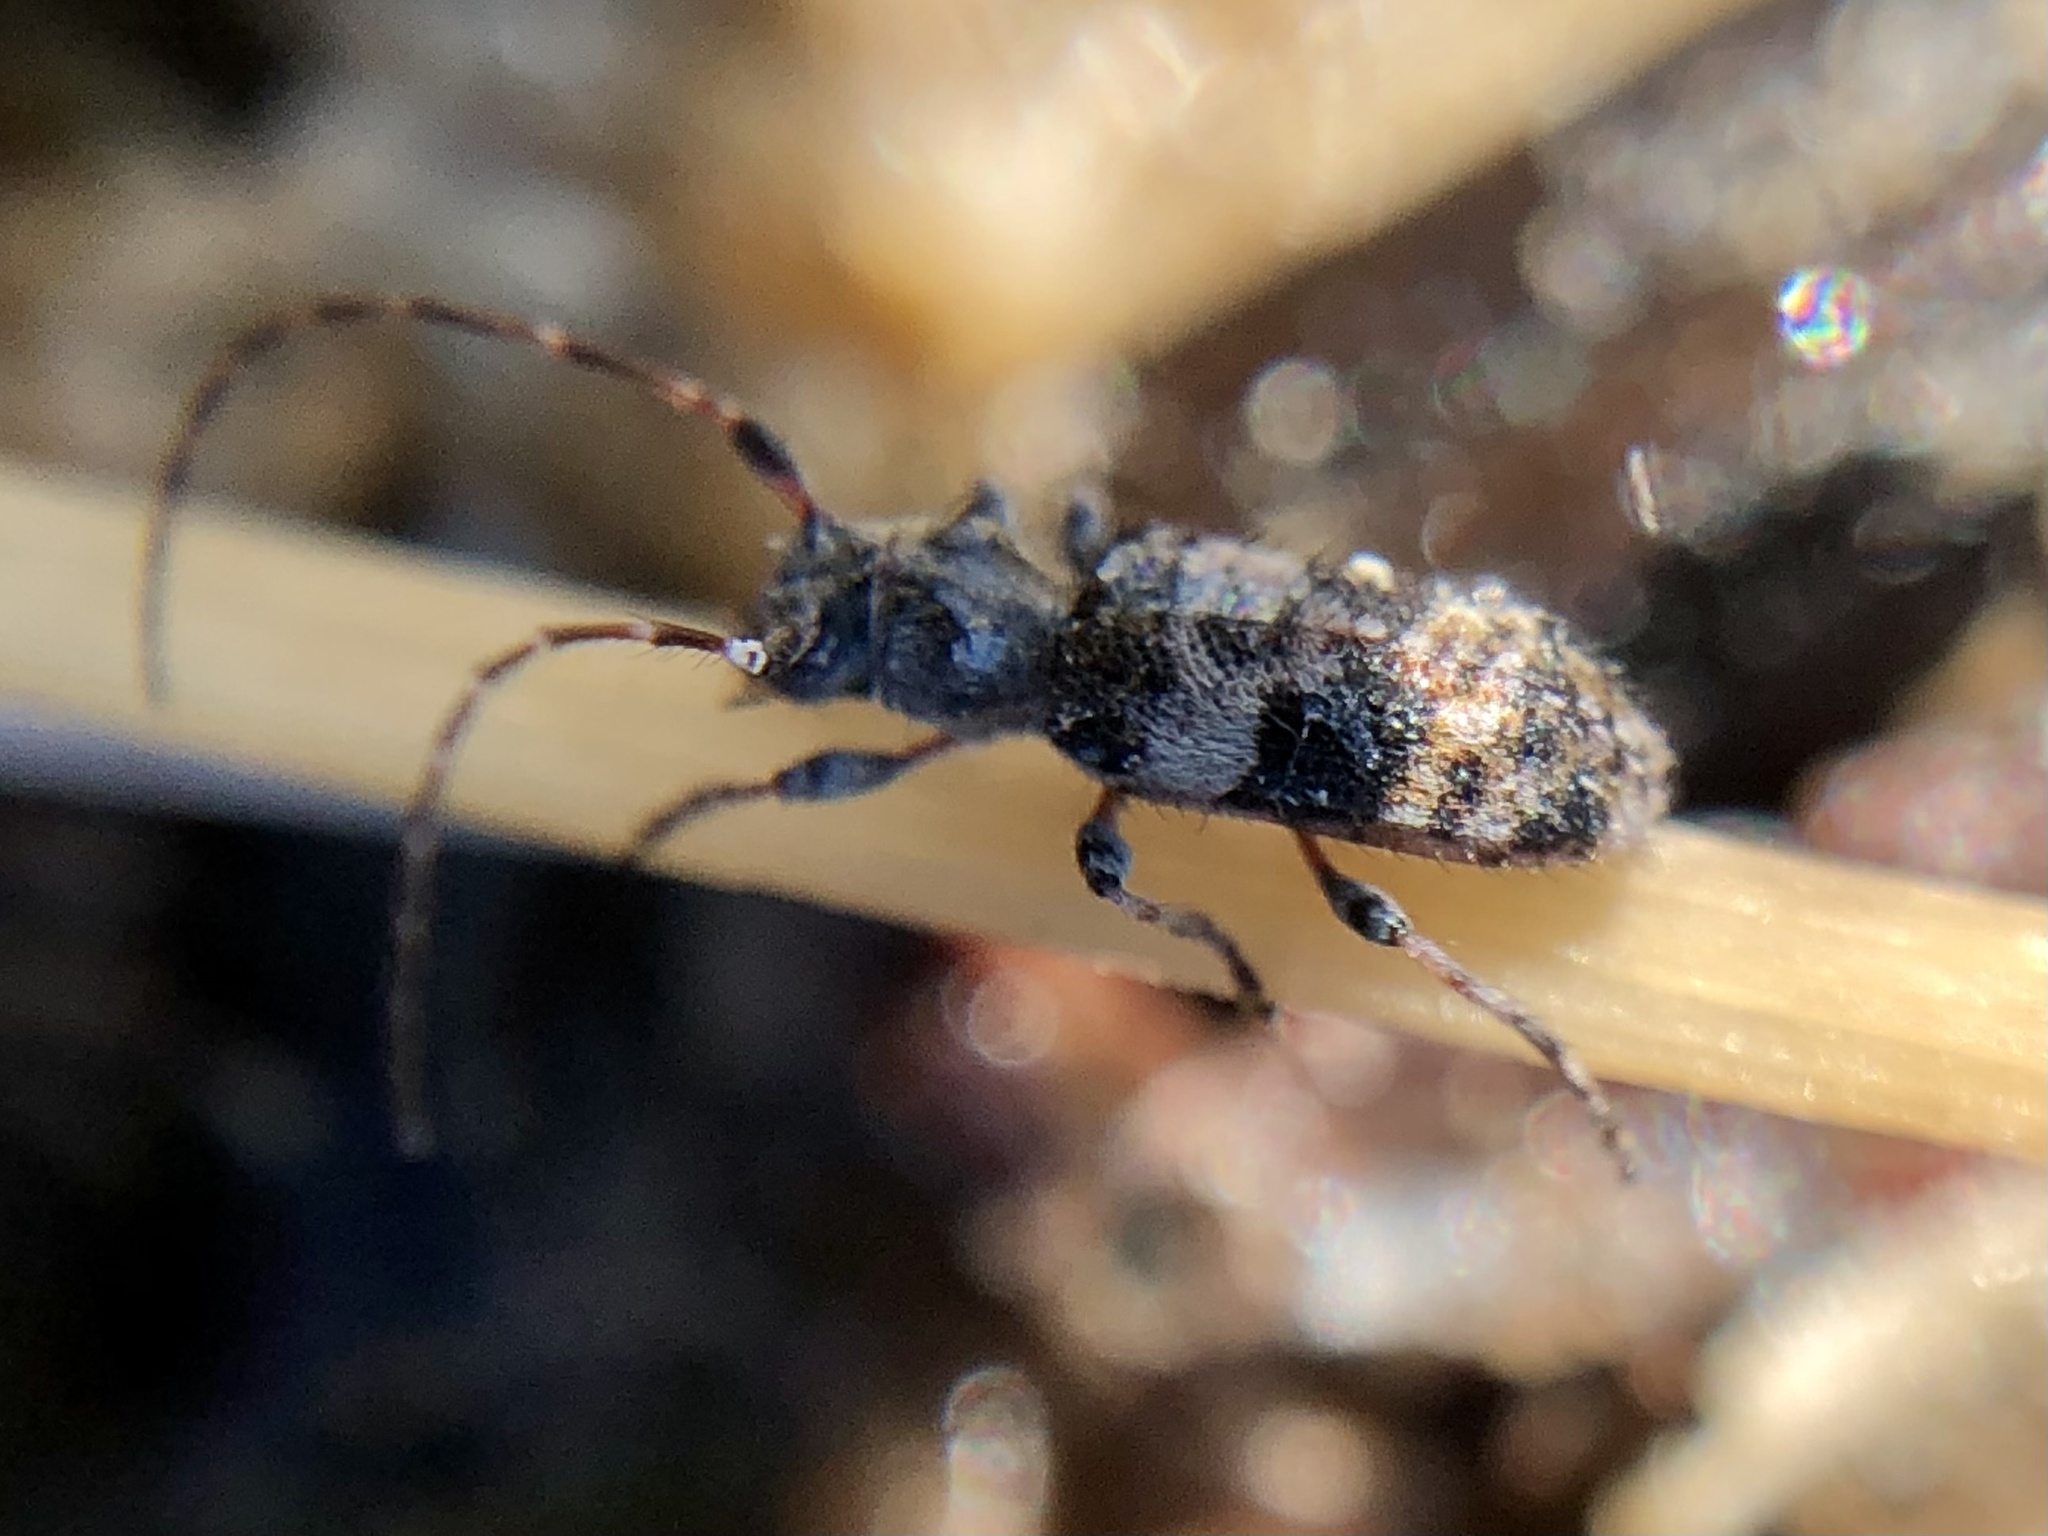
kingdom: Animalia
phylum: Arthropoda
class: Insecta
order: Coleoptera
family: Cerambycidae
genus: Pogonocherus
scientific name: Pogonocherus mixtus
